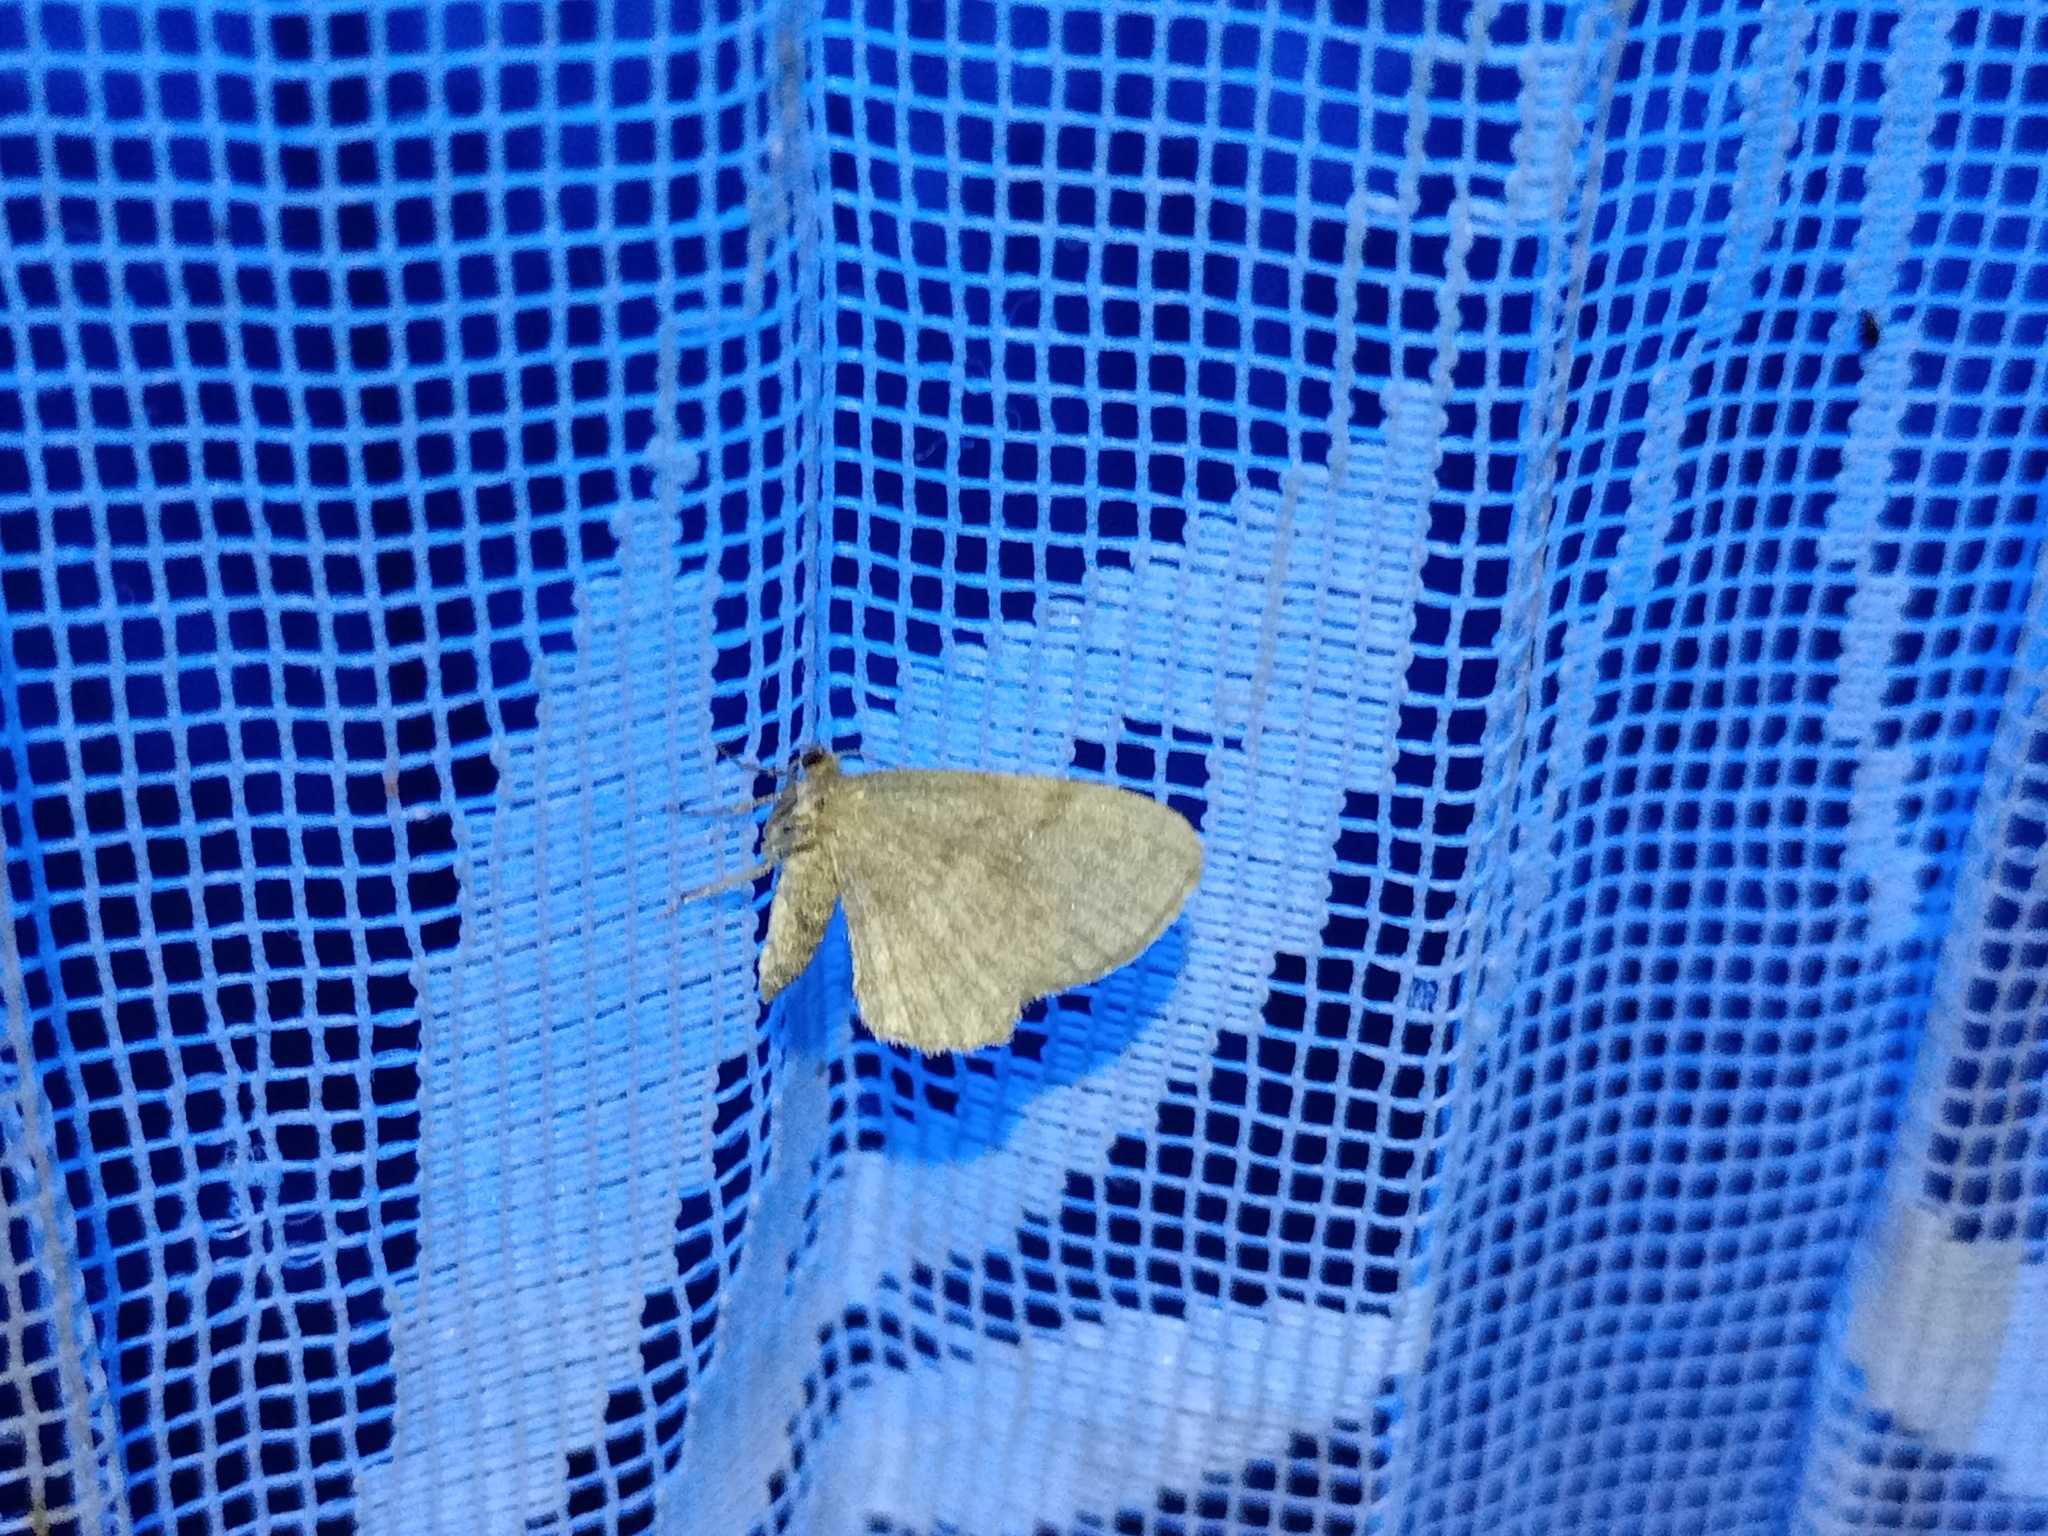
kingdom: Animalia
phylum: Arthropoda
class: Insecta
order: Lepidoptera
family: Geometridae
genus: Euchoeca
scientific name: Euchoeca nebulata
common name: Dingy shell
